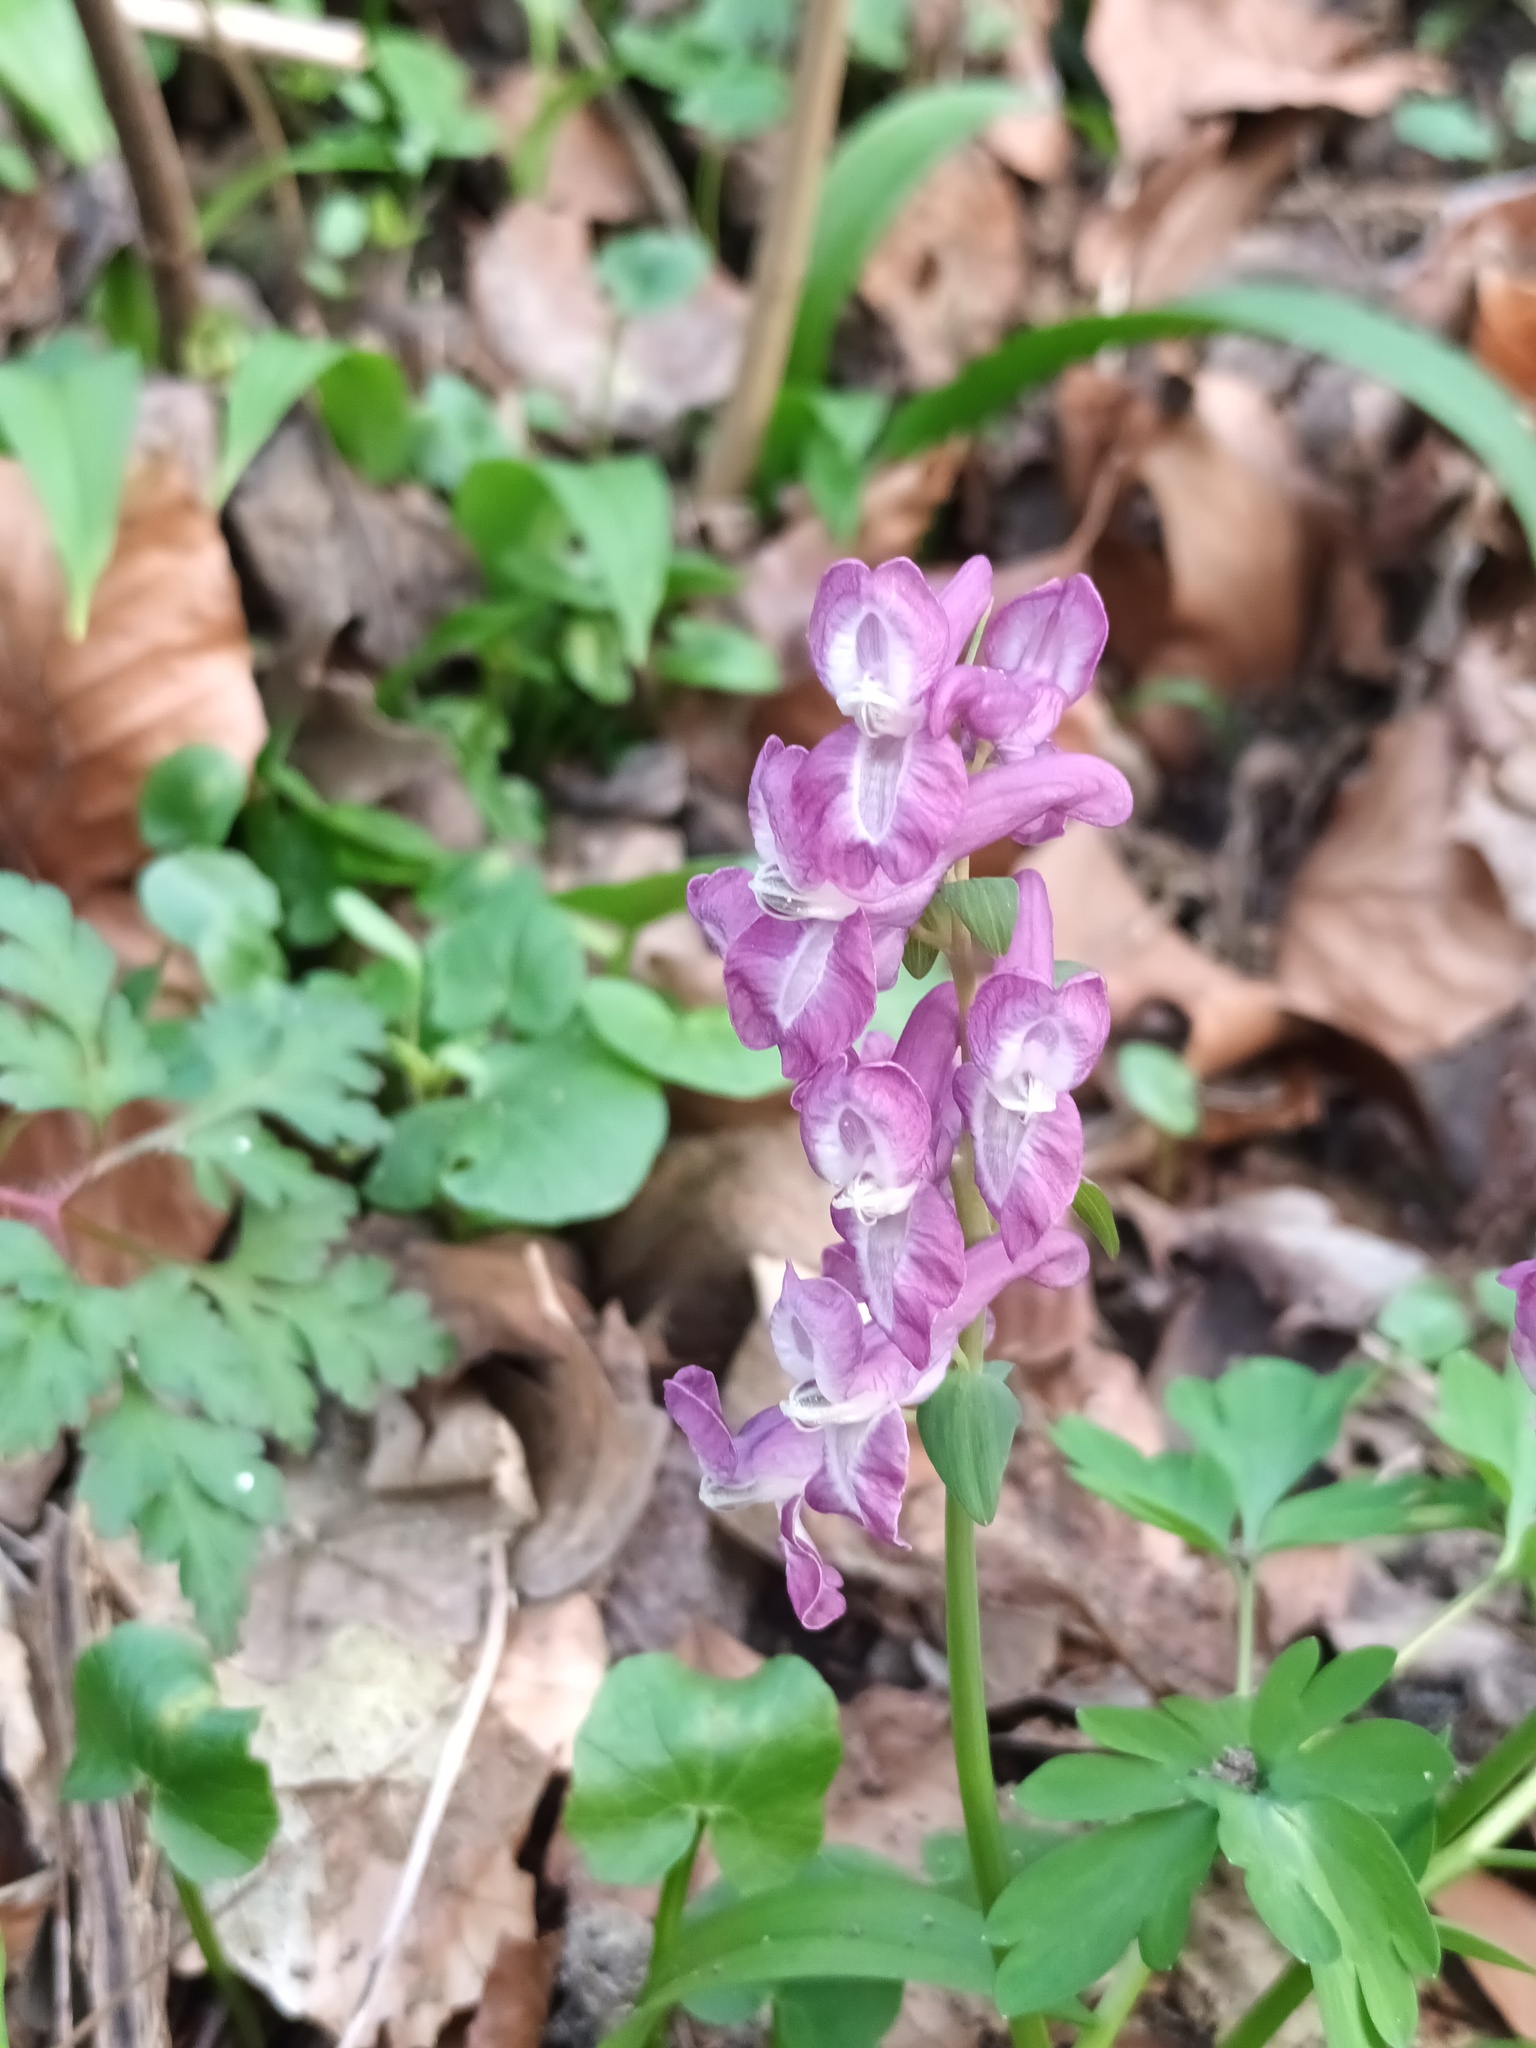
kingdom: Plantae
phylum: Tracheophyta
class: Magnoliopsida
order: Ranunculales
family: Papaveraceae
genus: Corydalis
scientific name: Corydalis cava
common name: Hollowroot
